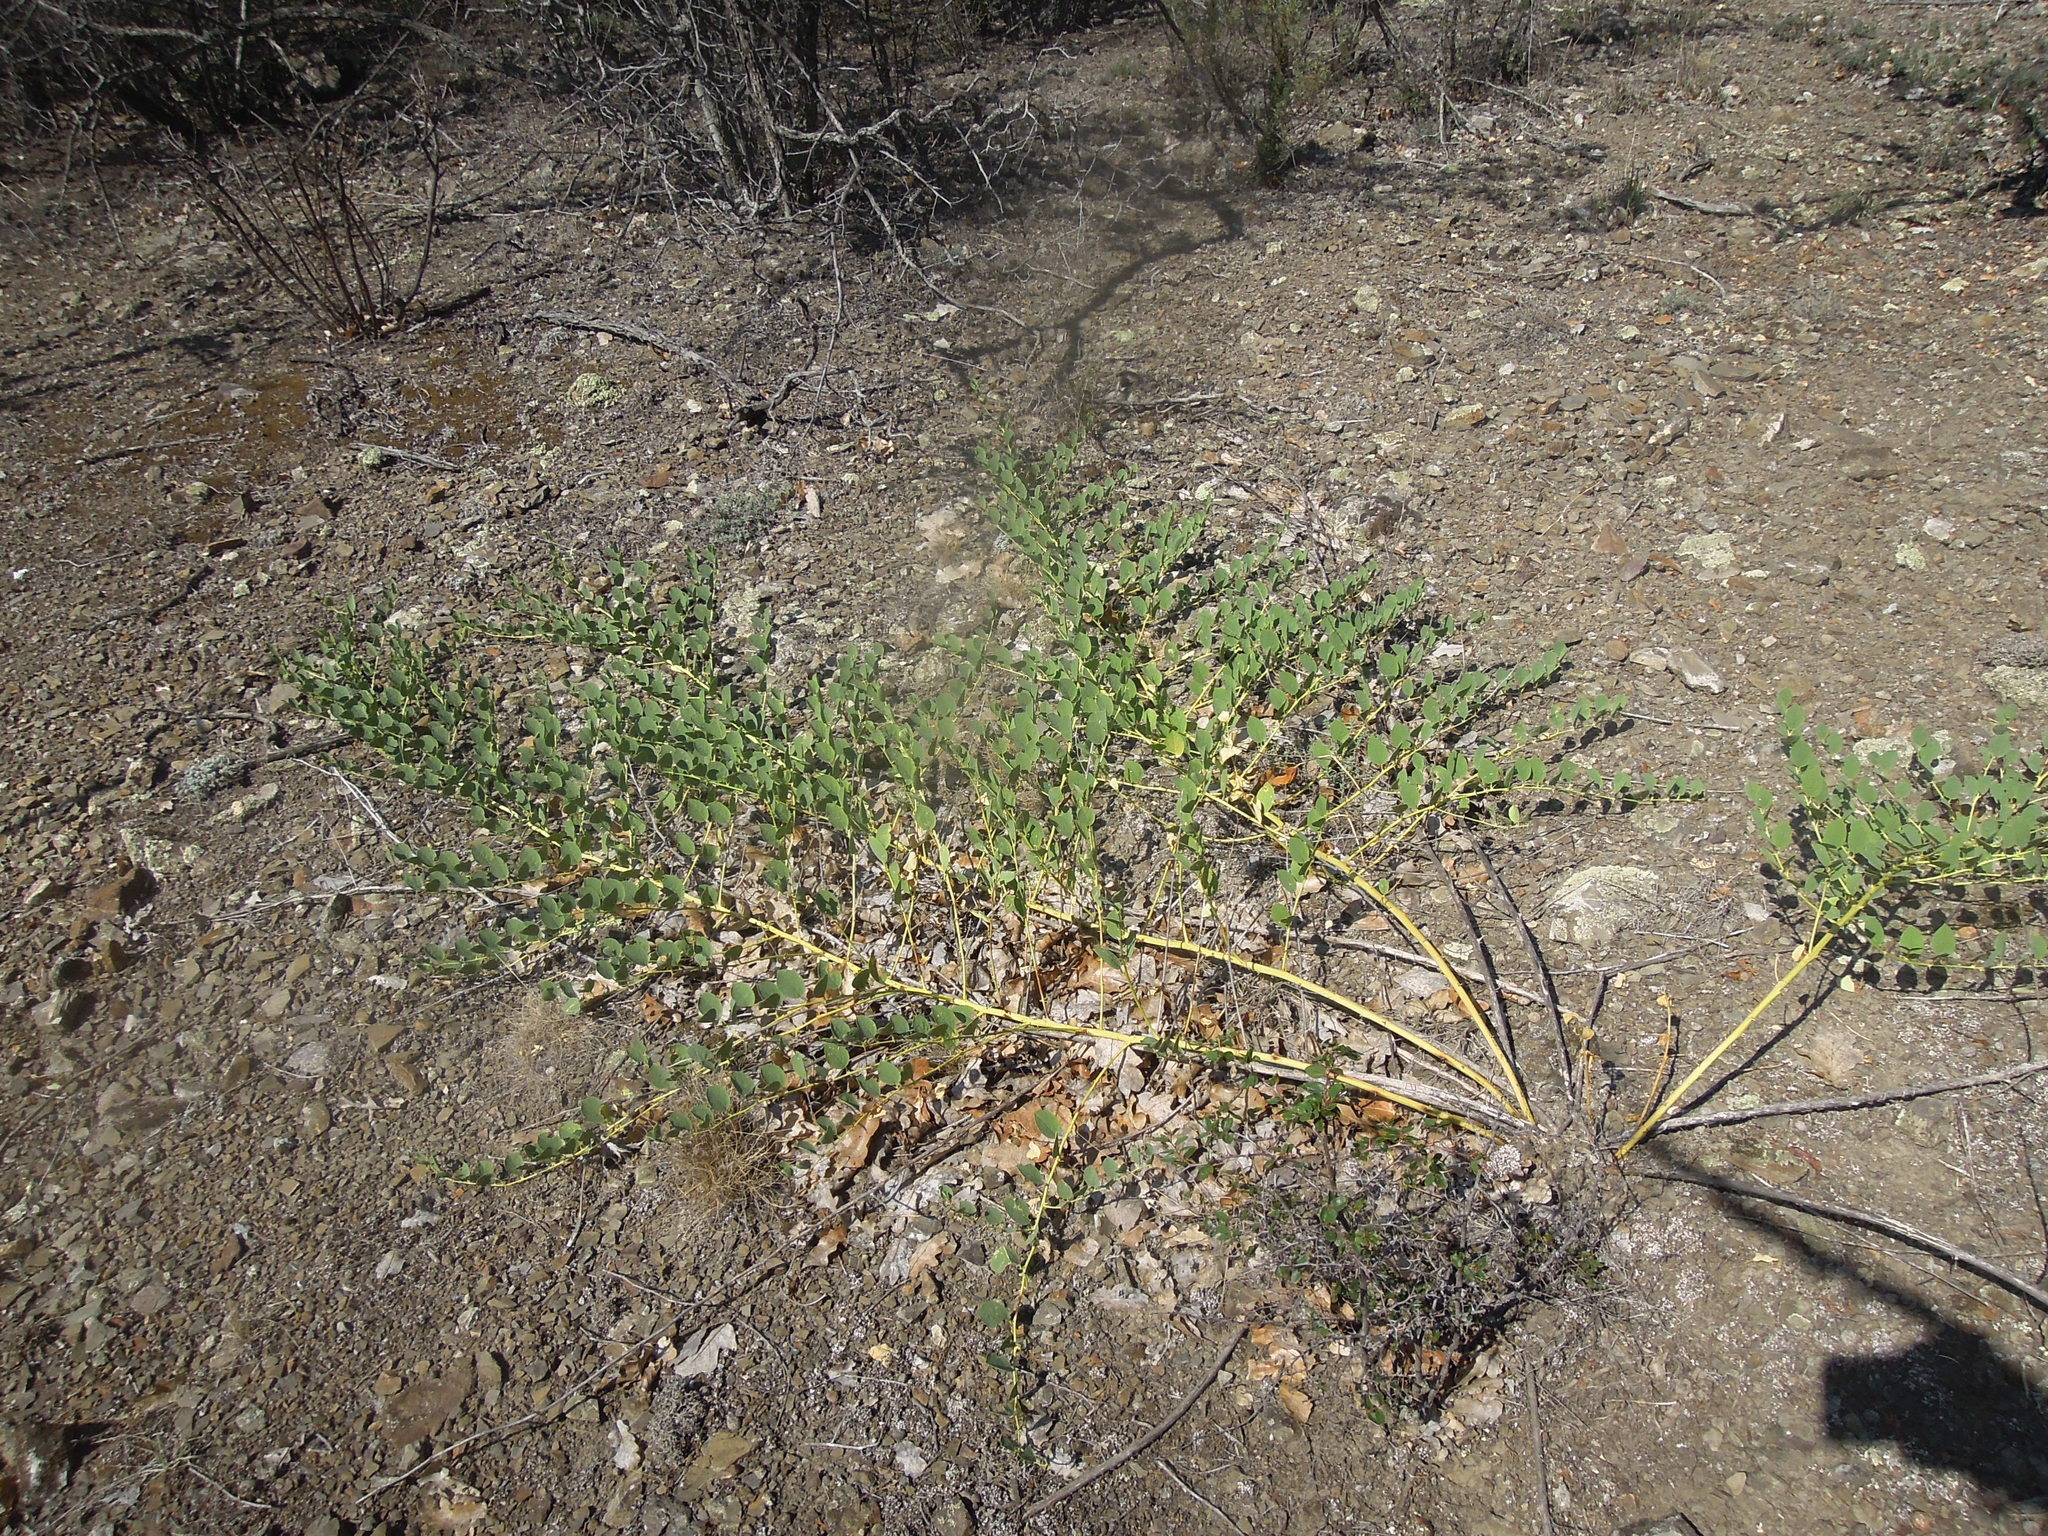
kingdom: Plantae
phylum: Tracheophyta
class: Magnoliopsida
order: Brassicales
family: Capparaceae
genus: Capparis
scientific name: Capparis spinosa
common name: Caper
